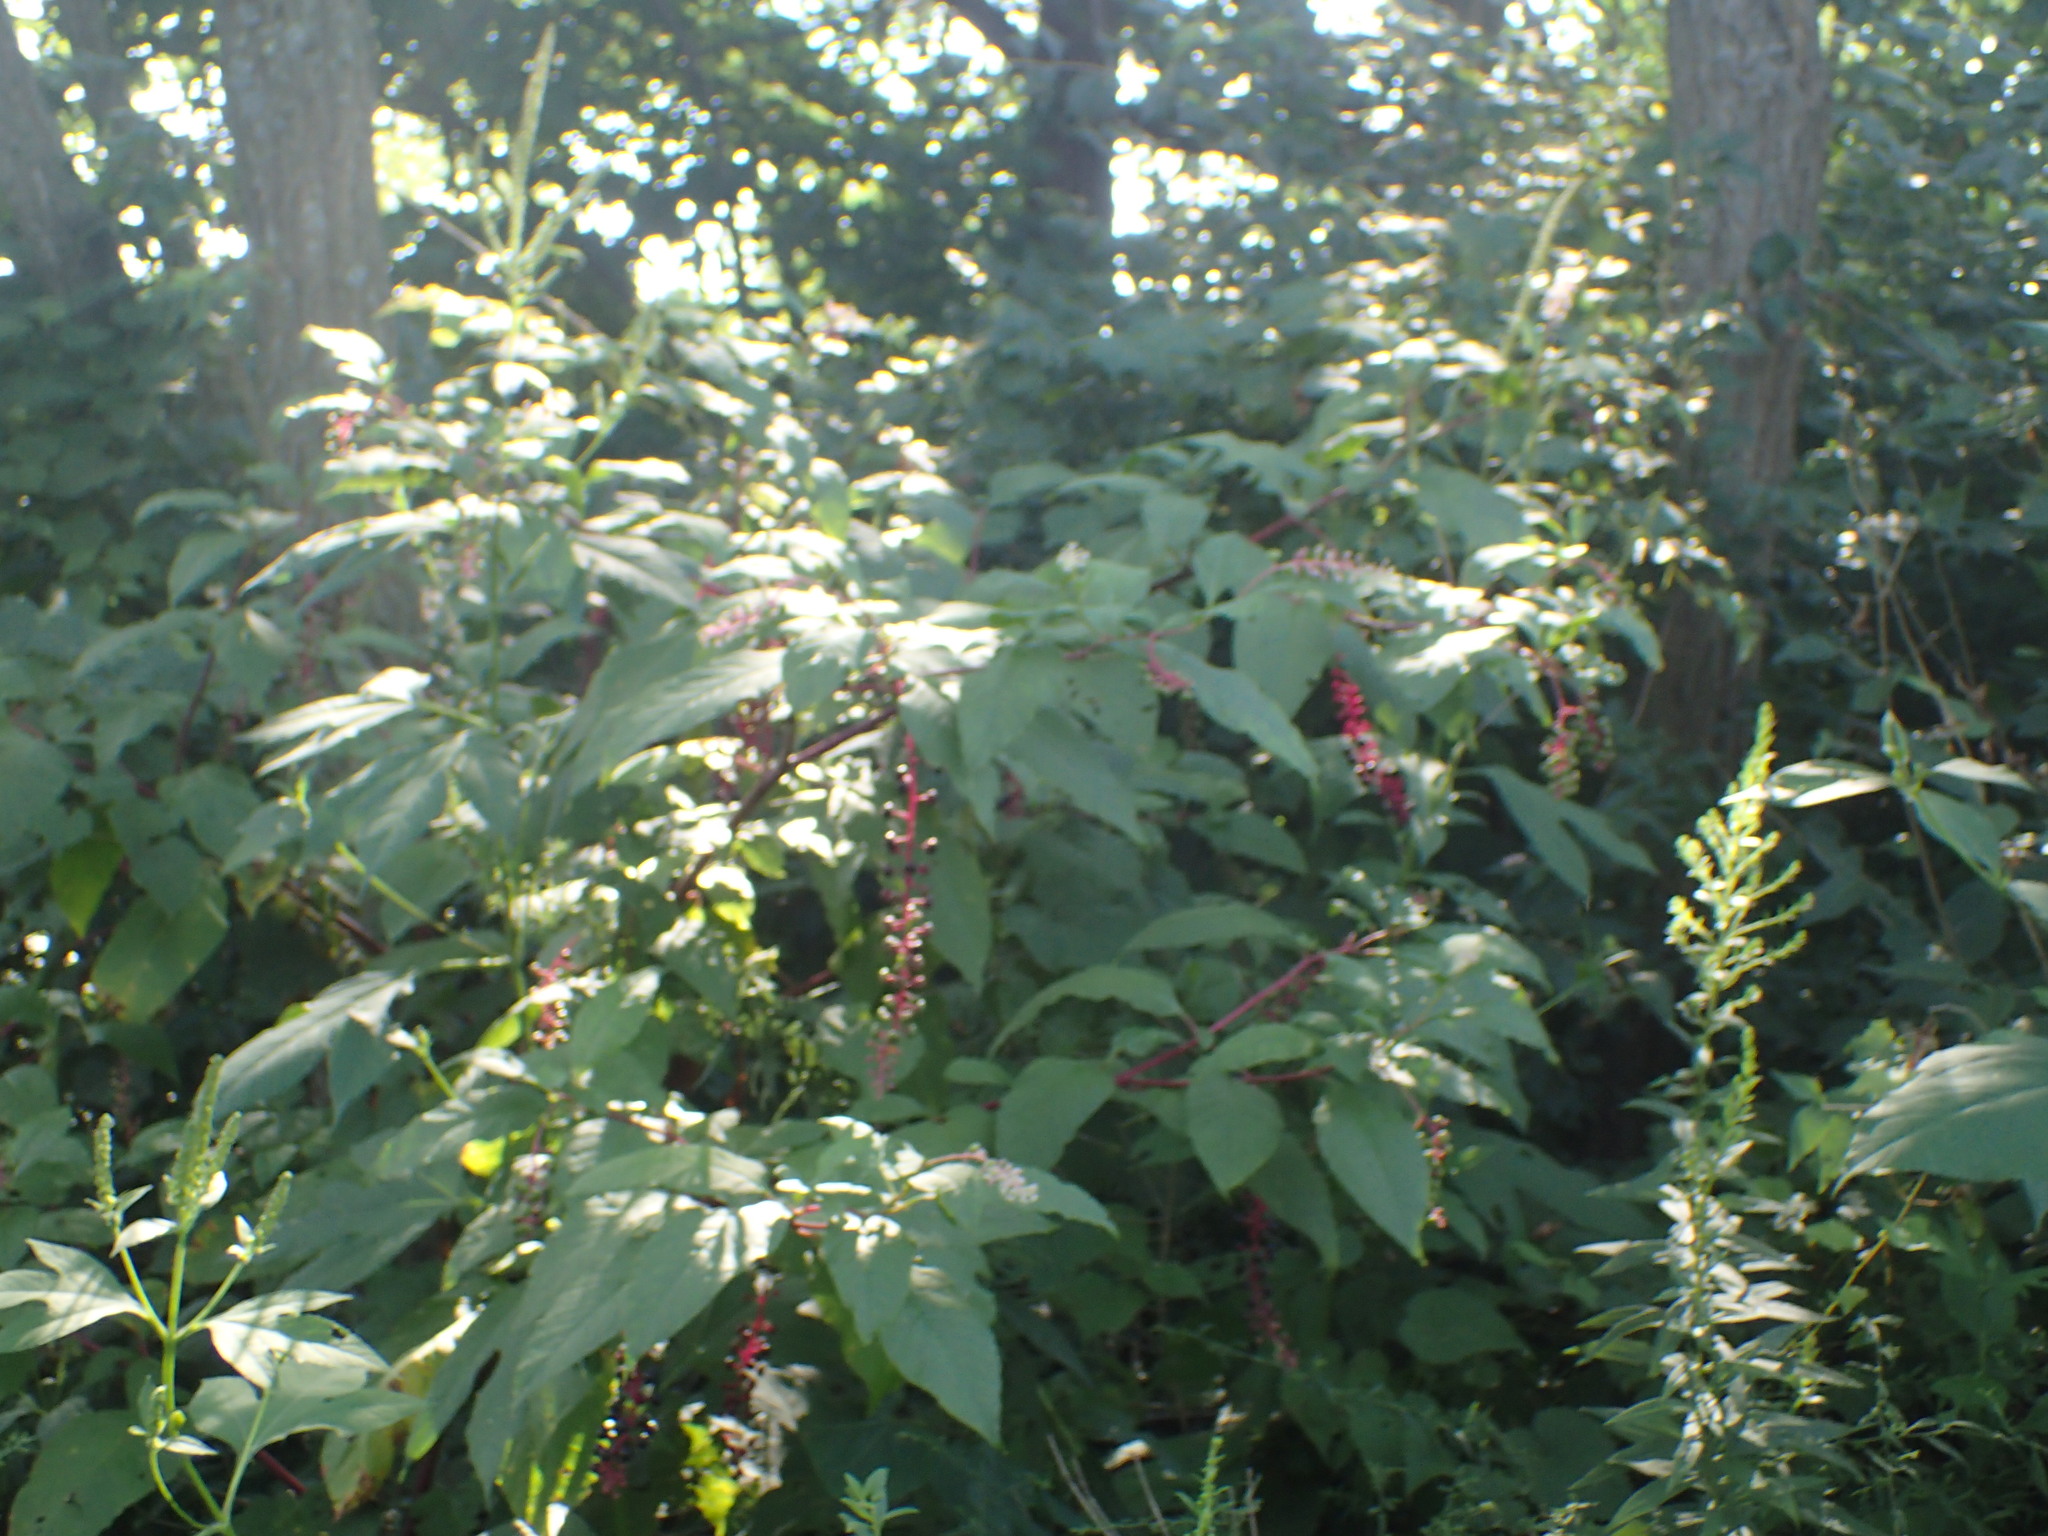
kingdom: Plantae
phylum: Tracheophyta
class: Magnoliopsida
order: Caryophyllales
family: Phytolaccaceae
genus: Phytolacca
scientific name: Phytolacca americana
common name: American pokeweed
